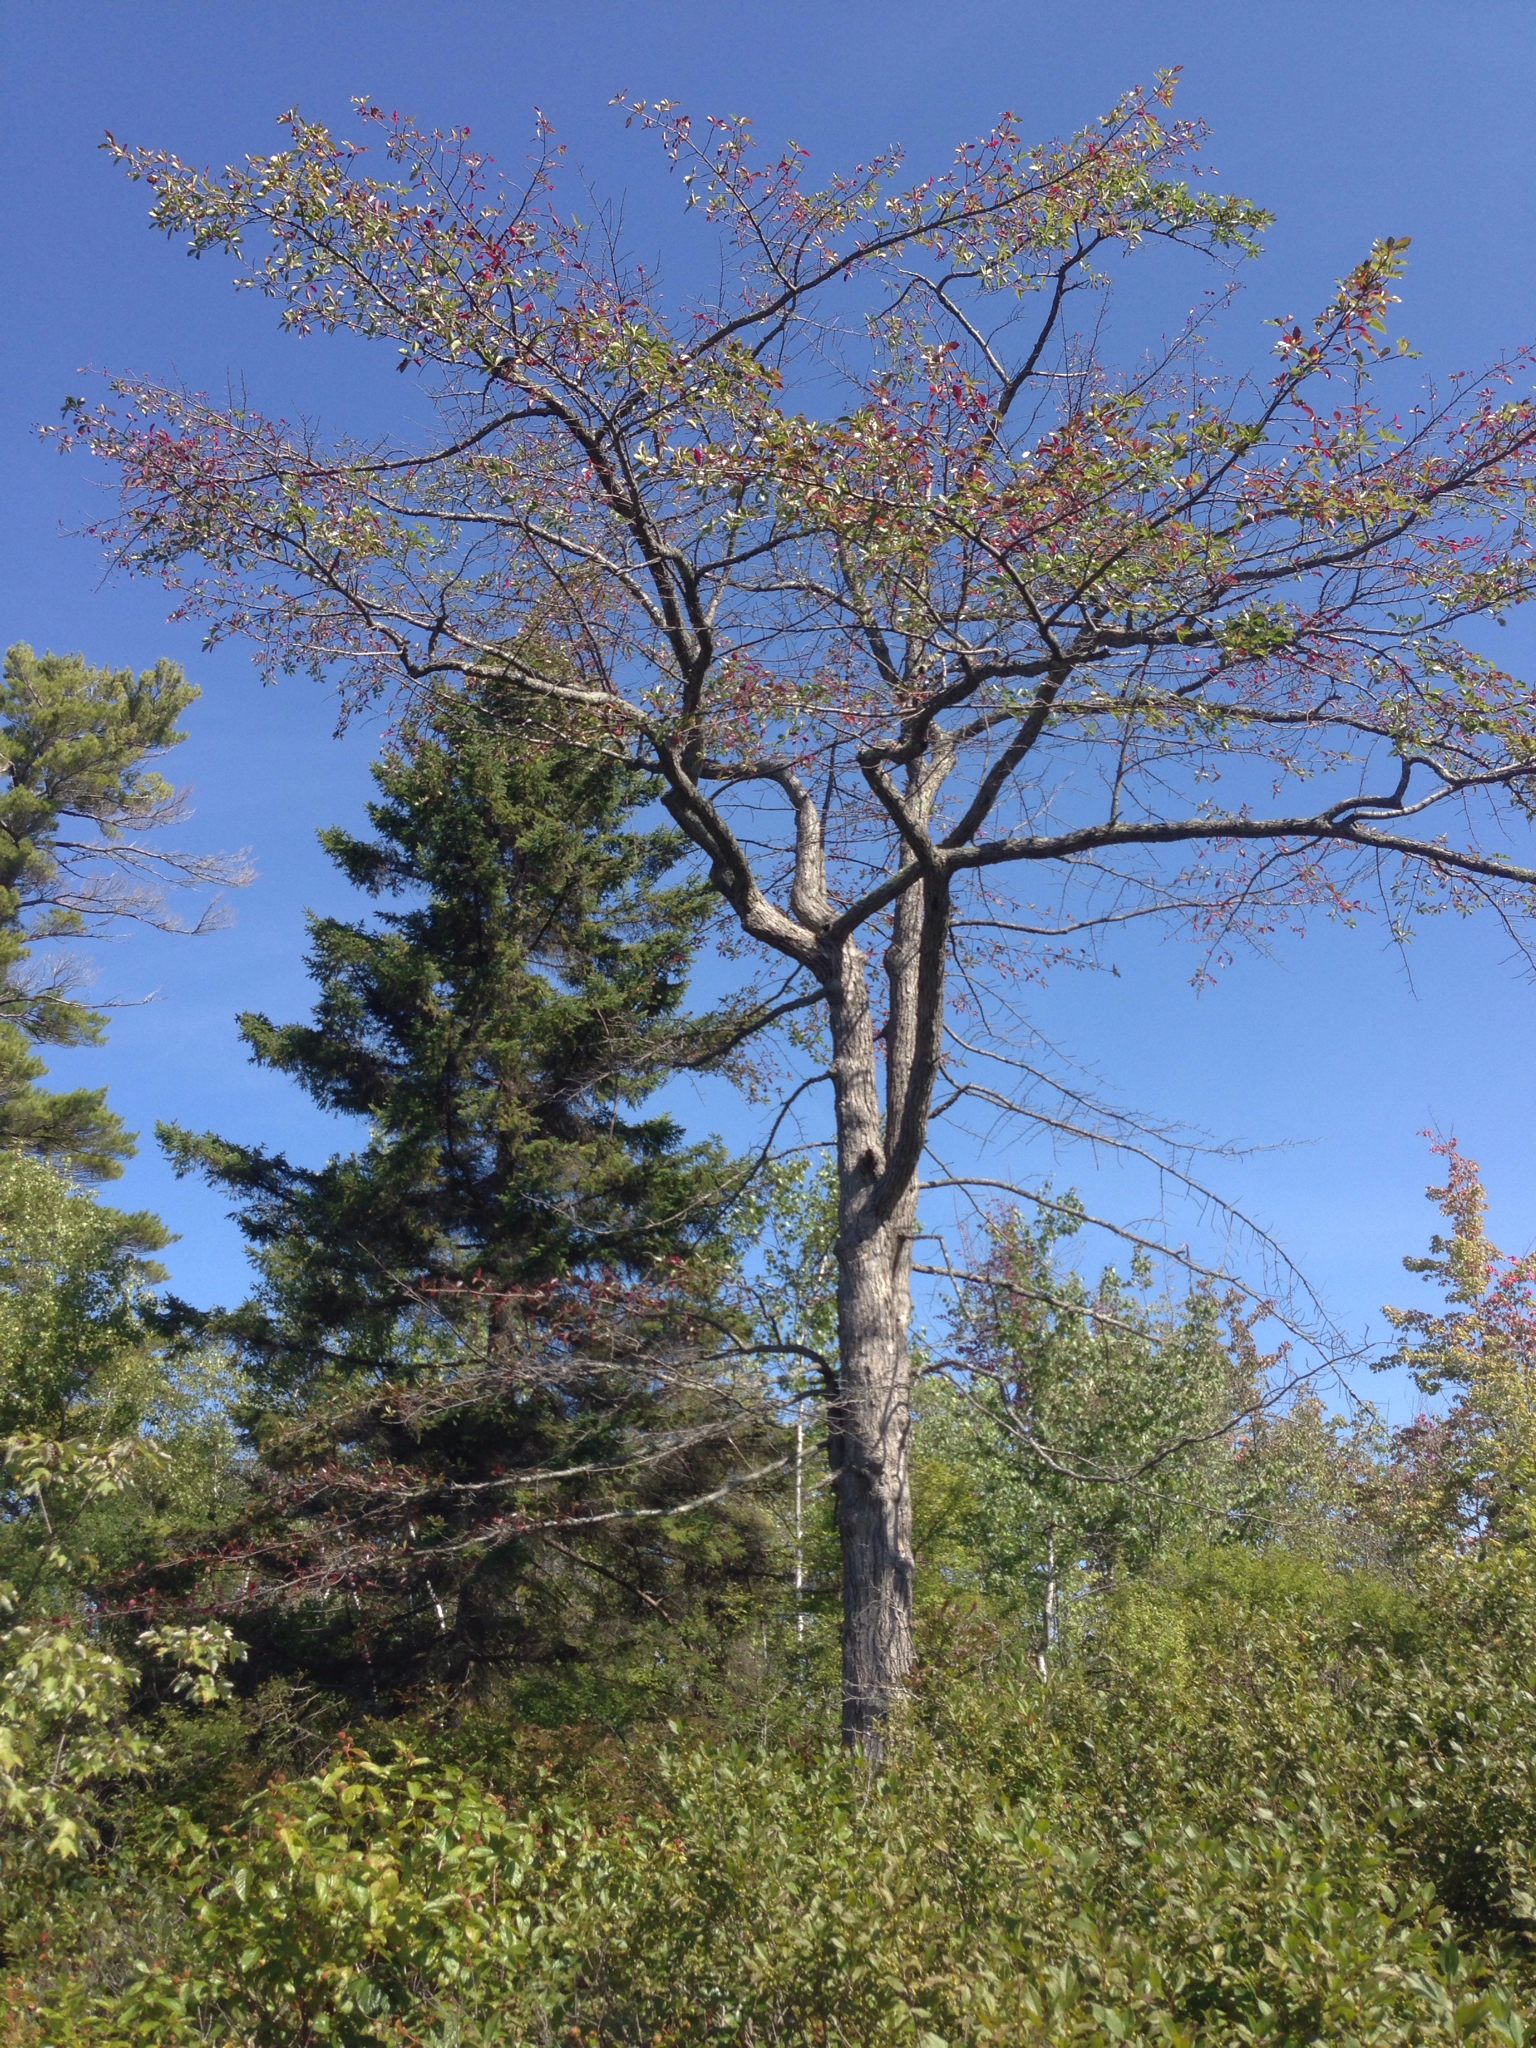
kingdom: Plantae
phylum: Tracheophyta
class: Magnoliopsida
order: Cornales
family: Nyssaceae
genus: Nyssa
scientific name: Nyssa sylvatica
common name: Black tupelo
